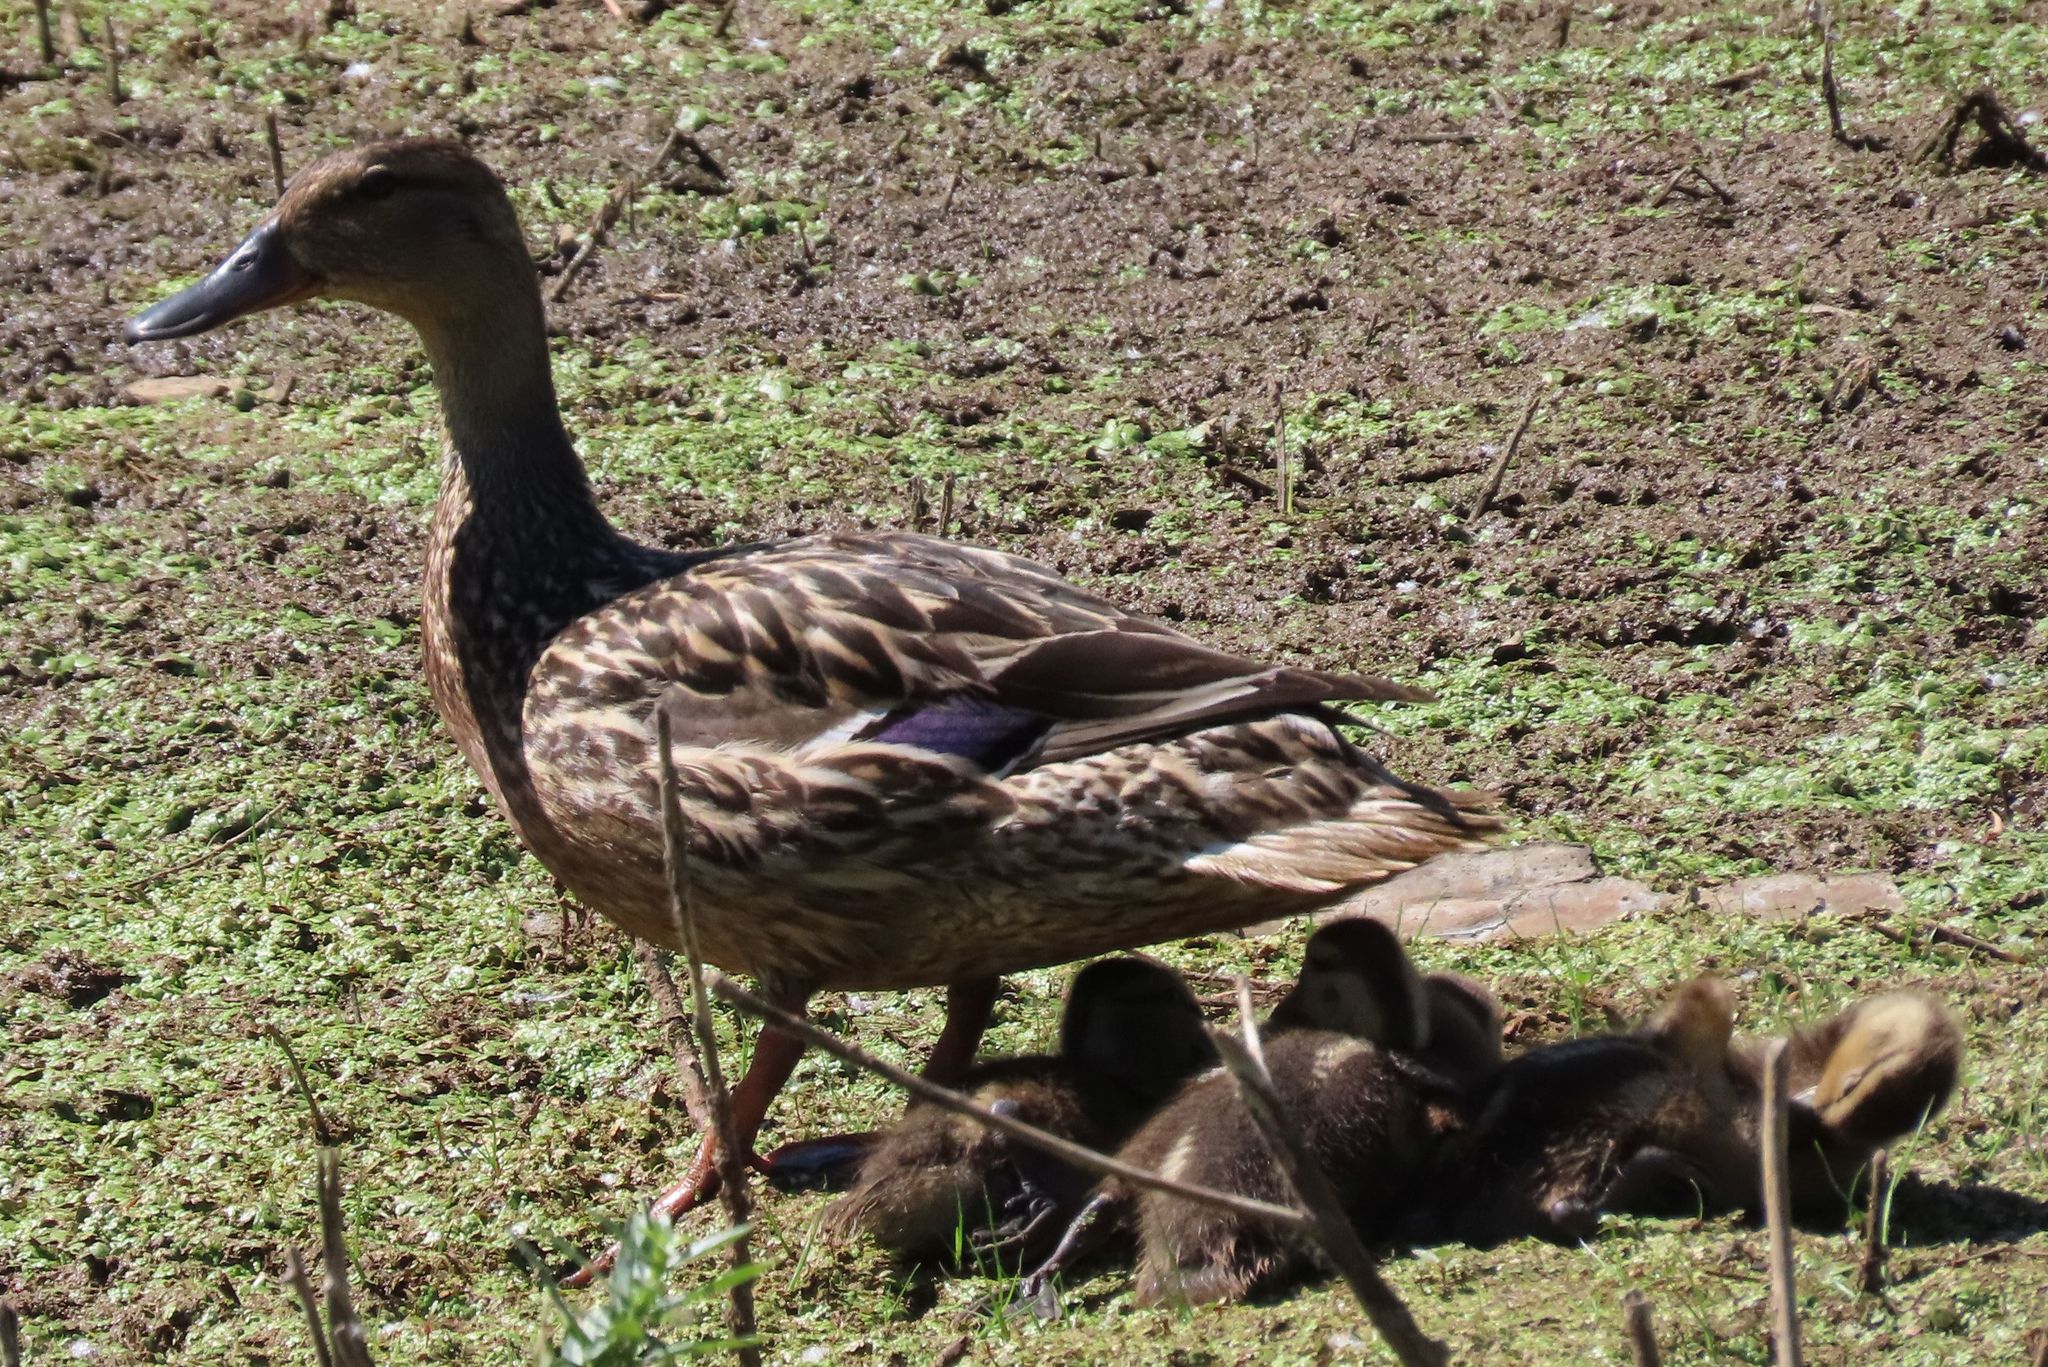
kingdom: Animalia
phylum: Chordata
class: Aves
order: Anseriformes
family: Anatidae
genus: Anas
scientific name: Anas platyrhynchos
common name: Mallard
